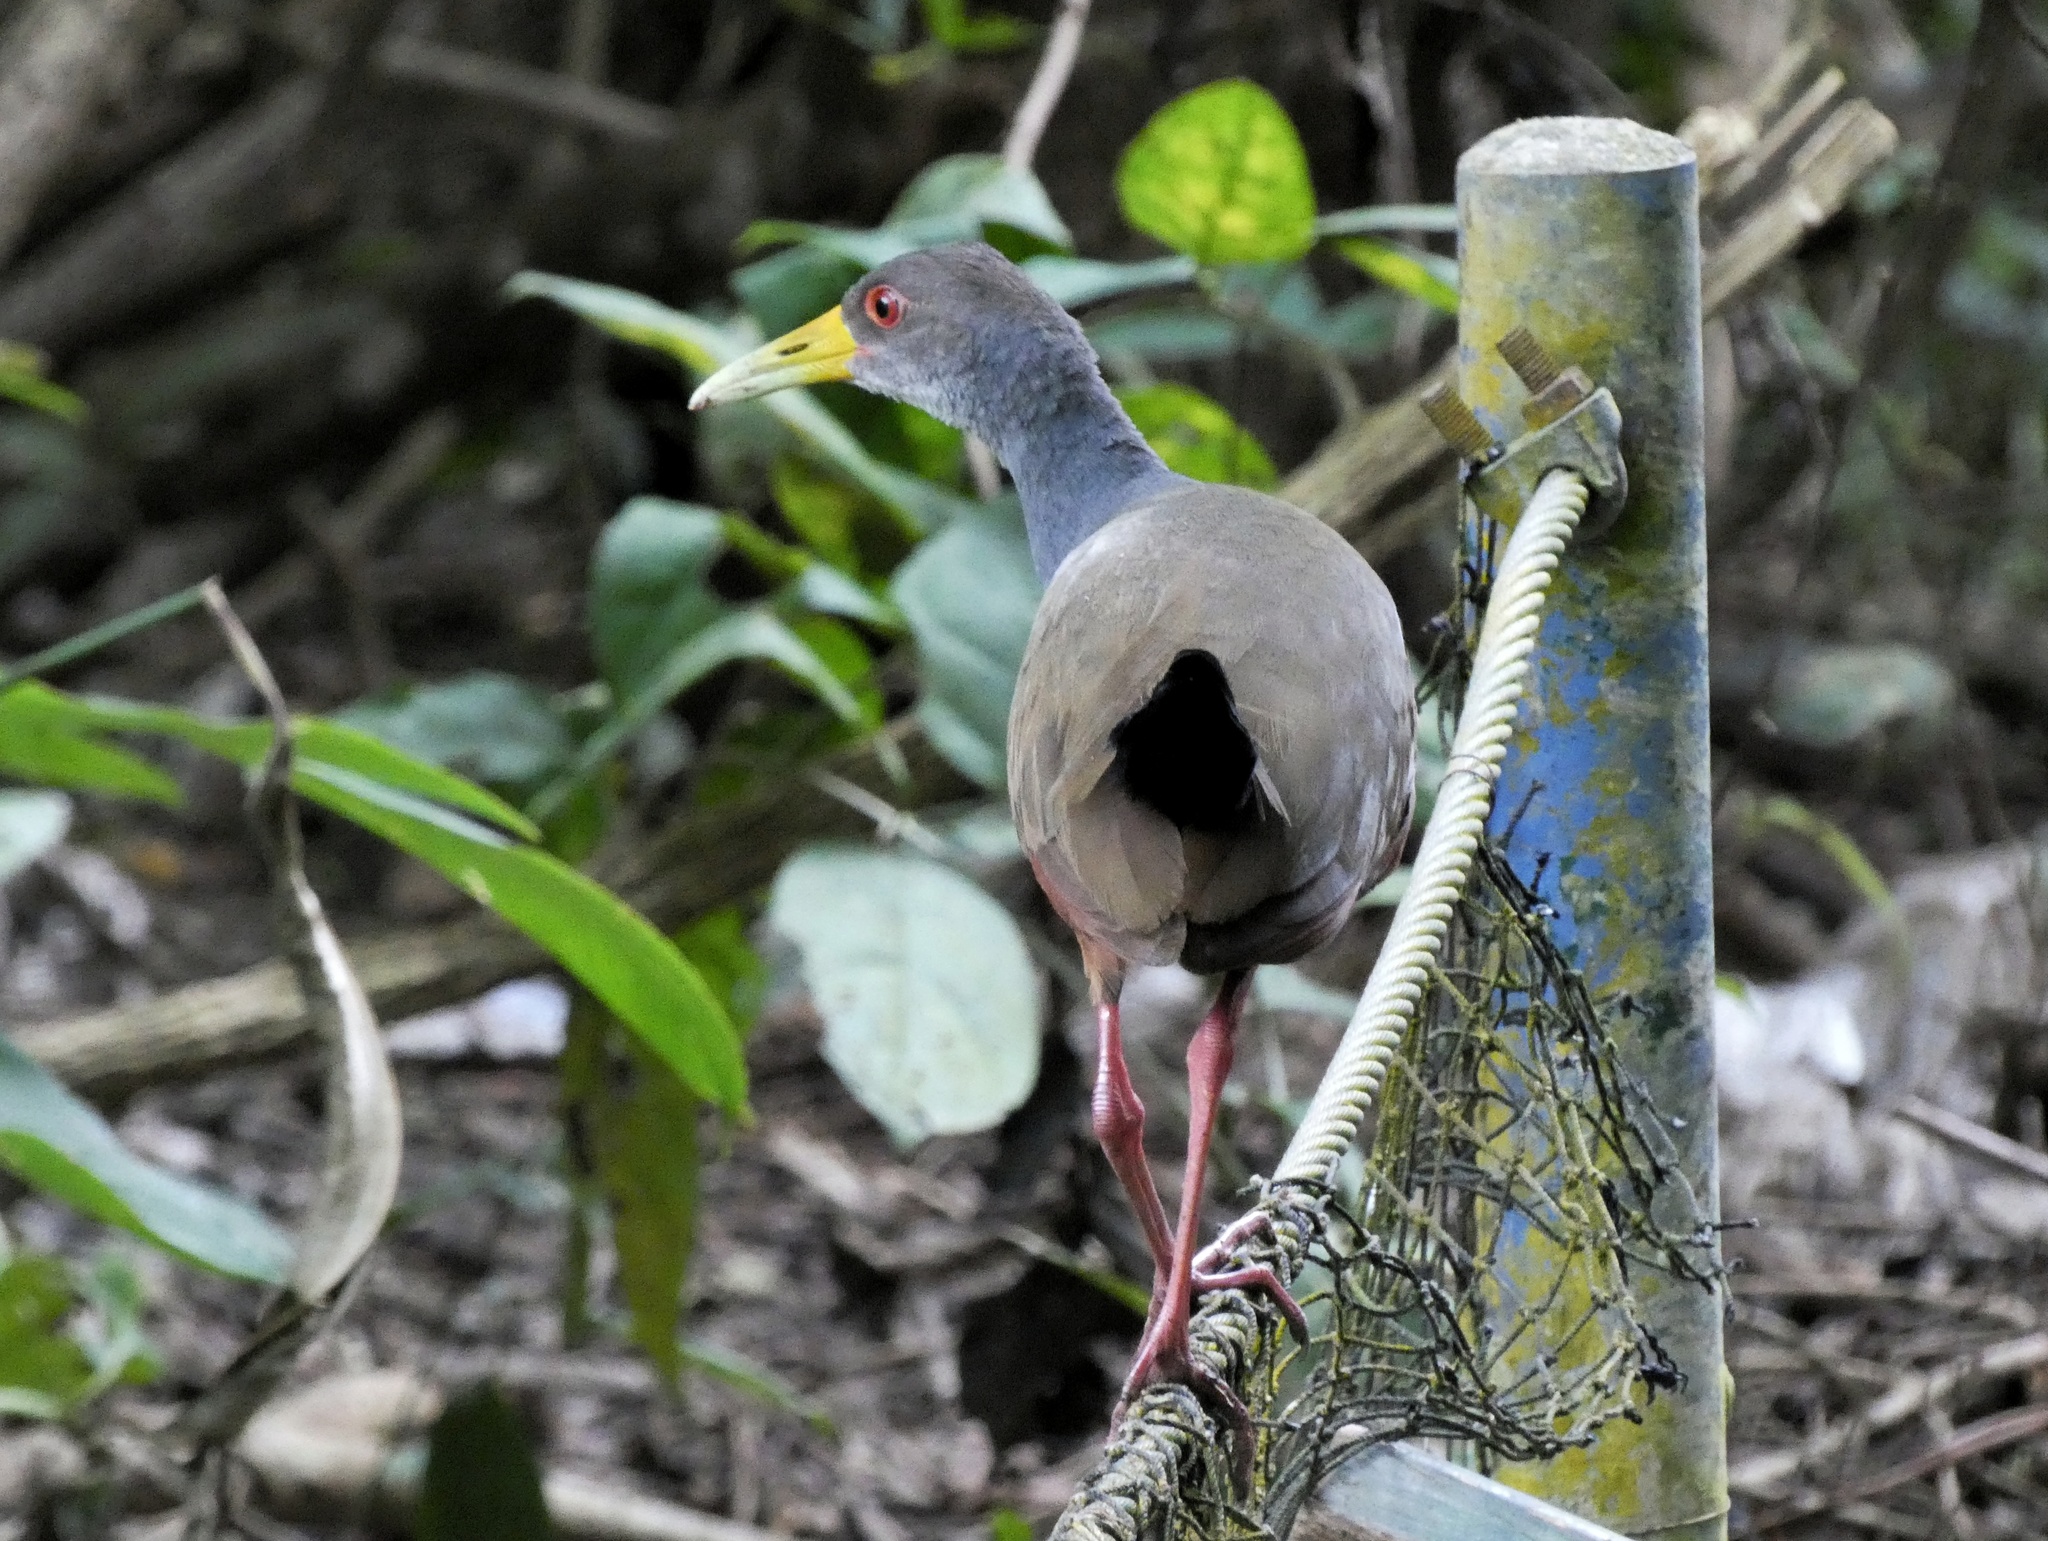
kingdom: Animalia
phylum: Chordata
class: Aves
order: Gruiformes
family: Rallidae
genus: Aramides
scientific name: Aramides cajanea
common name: Gray-necked wood-rail
